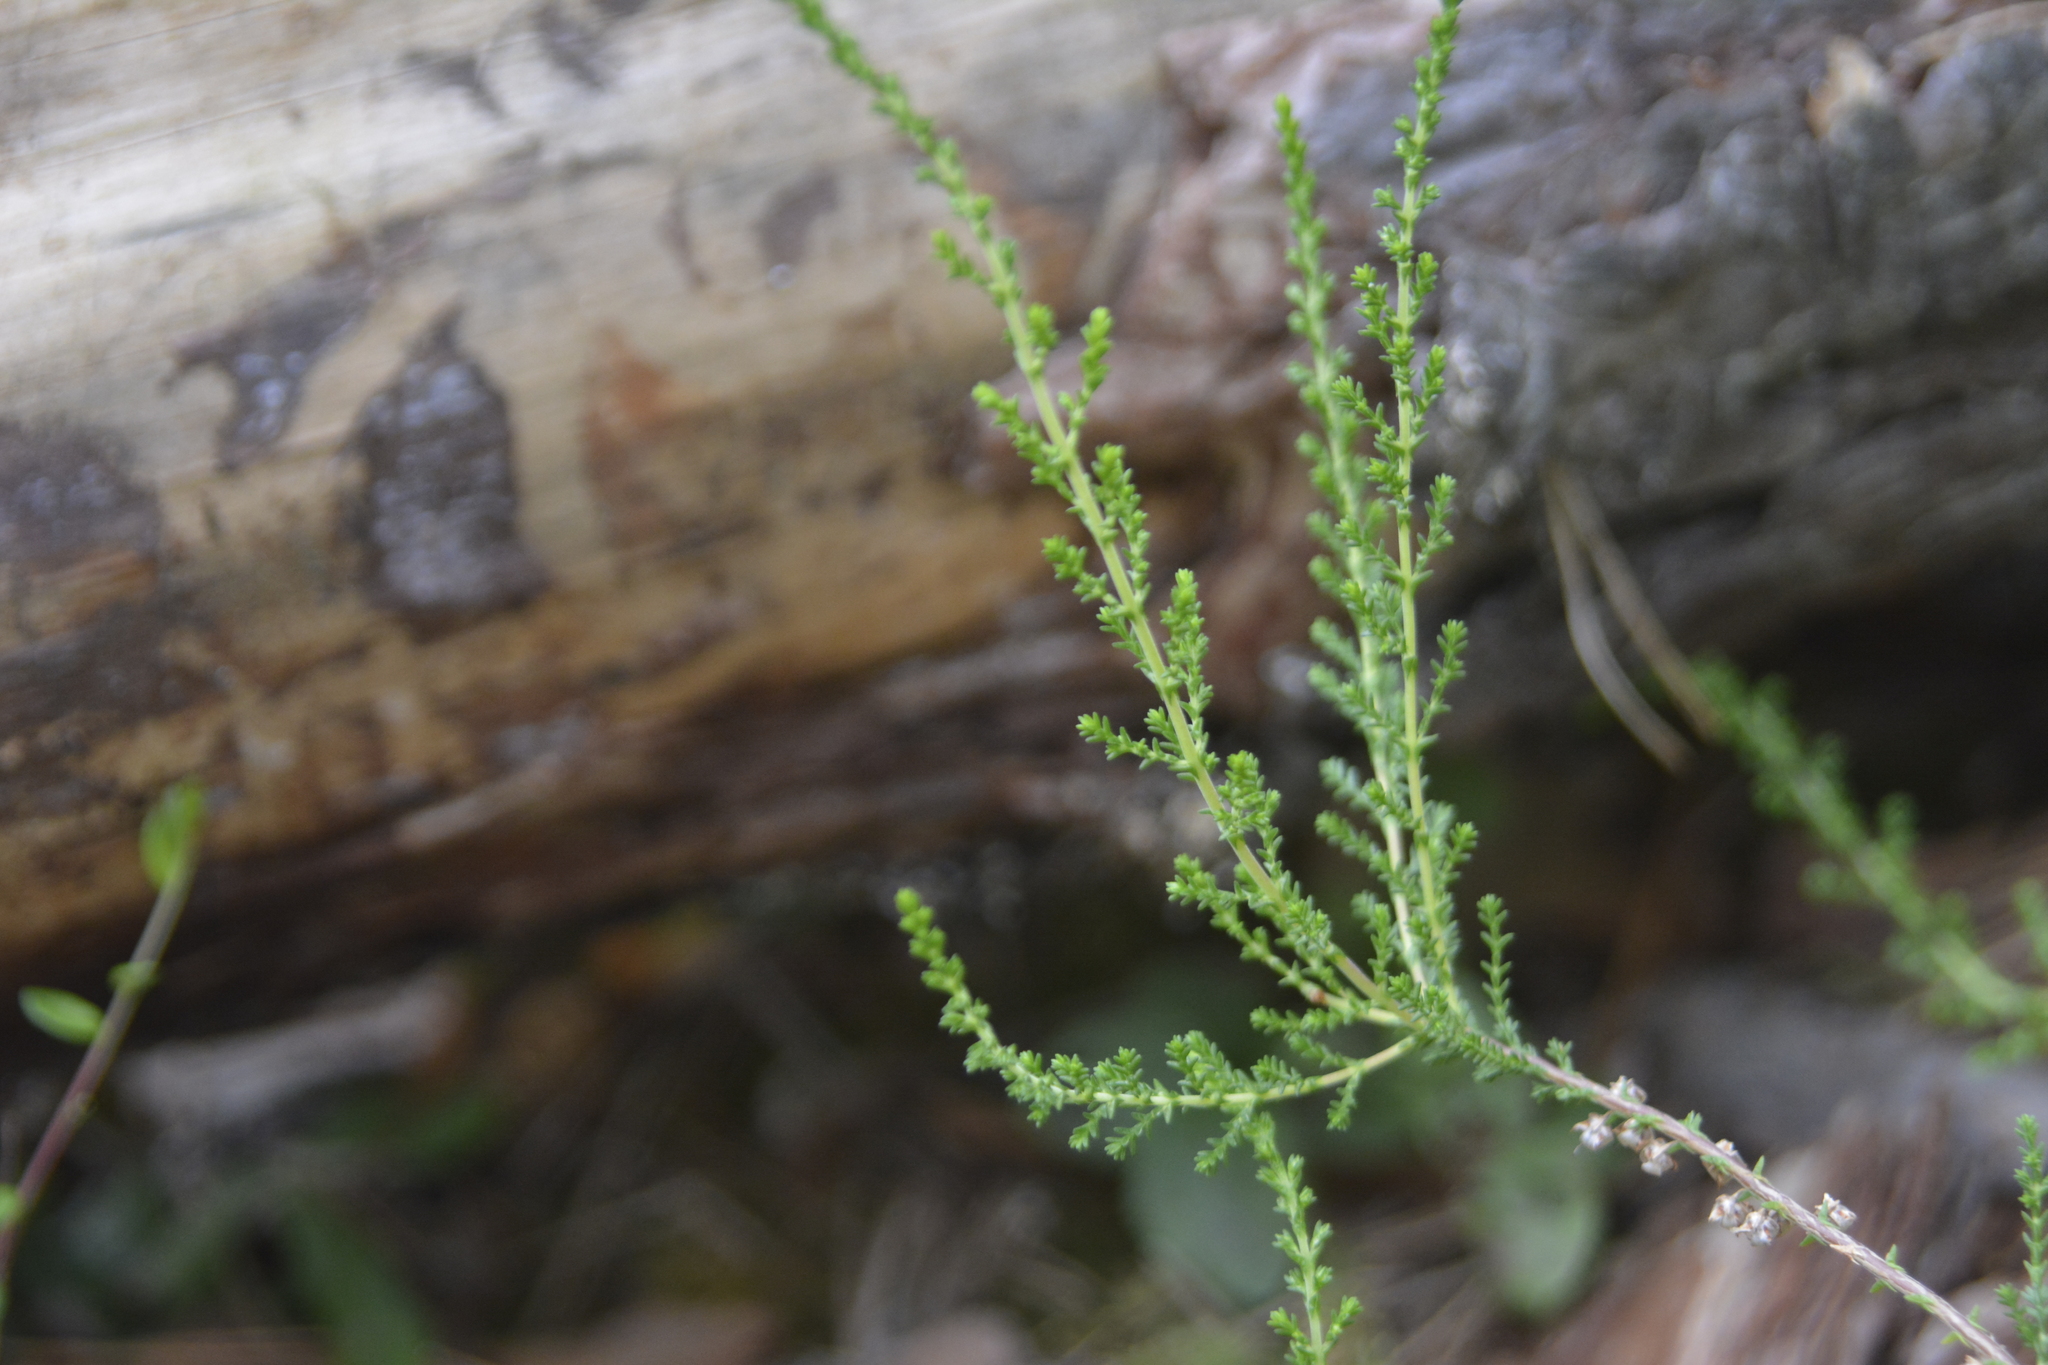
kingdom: Plantae
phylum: Tracheophyta
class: Magnoliopsida
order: Ericales
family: Ericaceae
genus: Calluna
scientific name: Calluna vulgaris
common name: Heather
